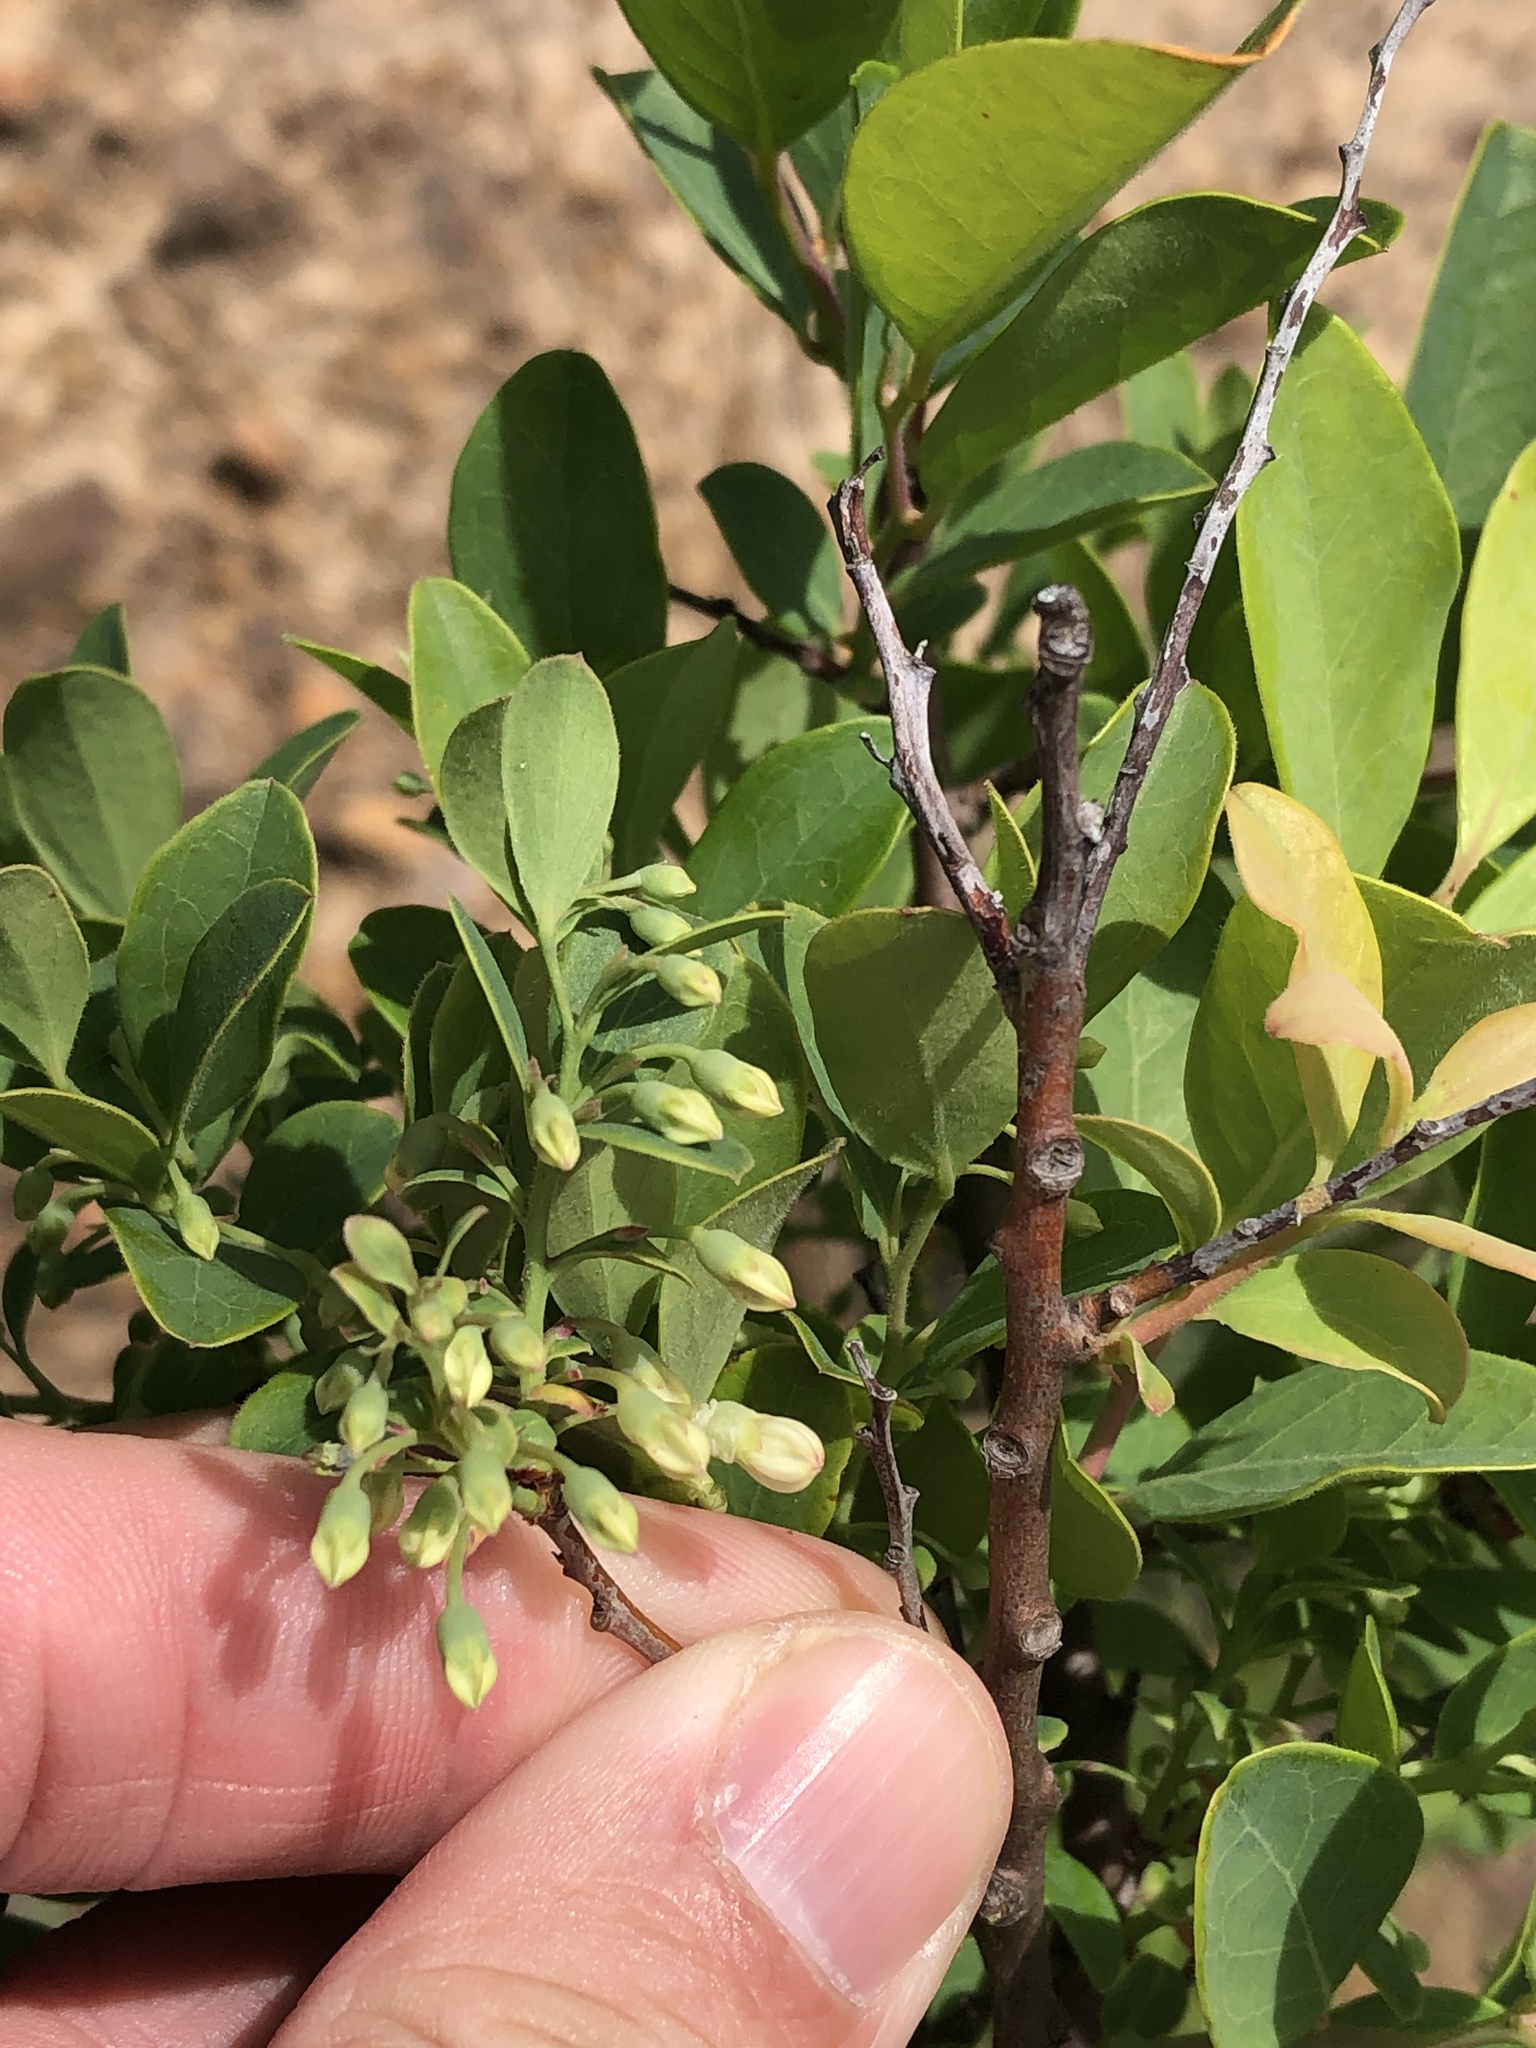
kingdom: Plantae
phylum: Tracheophyta
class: Magnoliopsida
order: Ericales
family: Ericaceae
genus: Vaccinium
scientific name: Vaccinium arboreum
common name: Farkleberry
